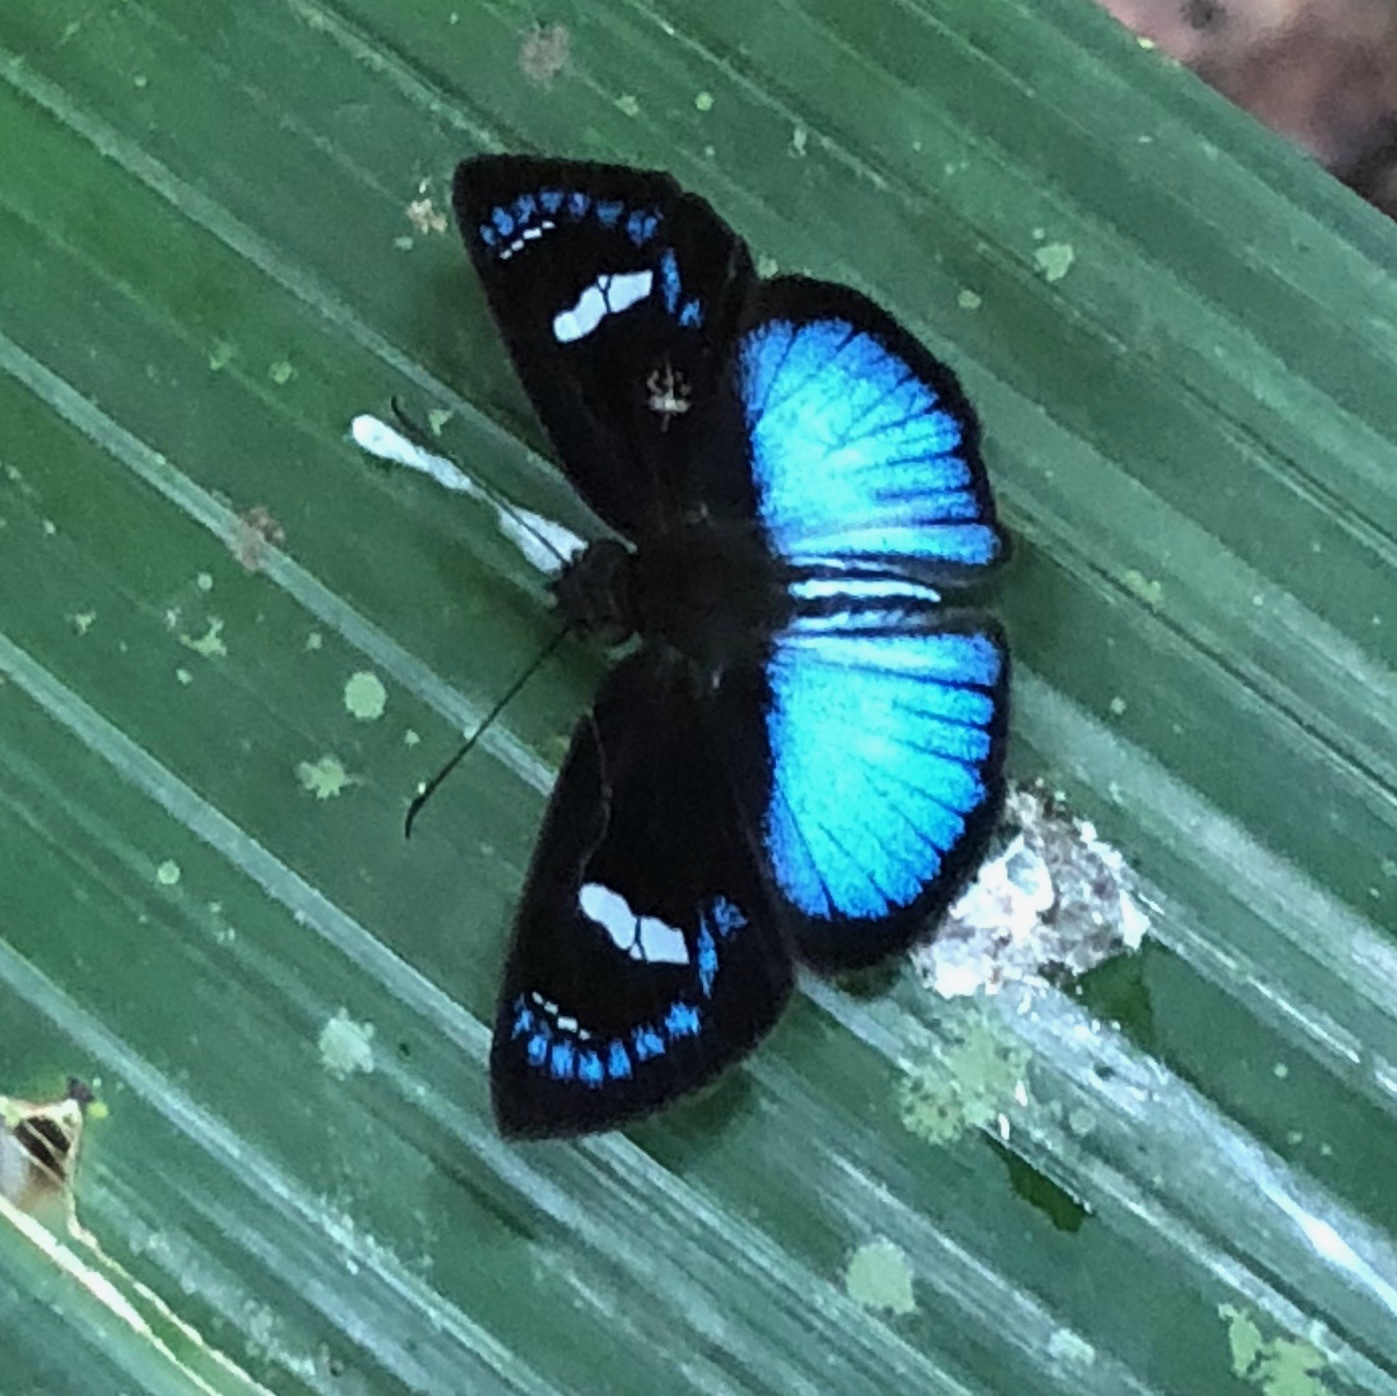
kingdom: Animalia
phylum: Arthropoda
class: Insecta
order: Lepidoptera
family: Hesperiidae
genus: Pythonides
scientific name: Pythonides jovianus
